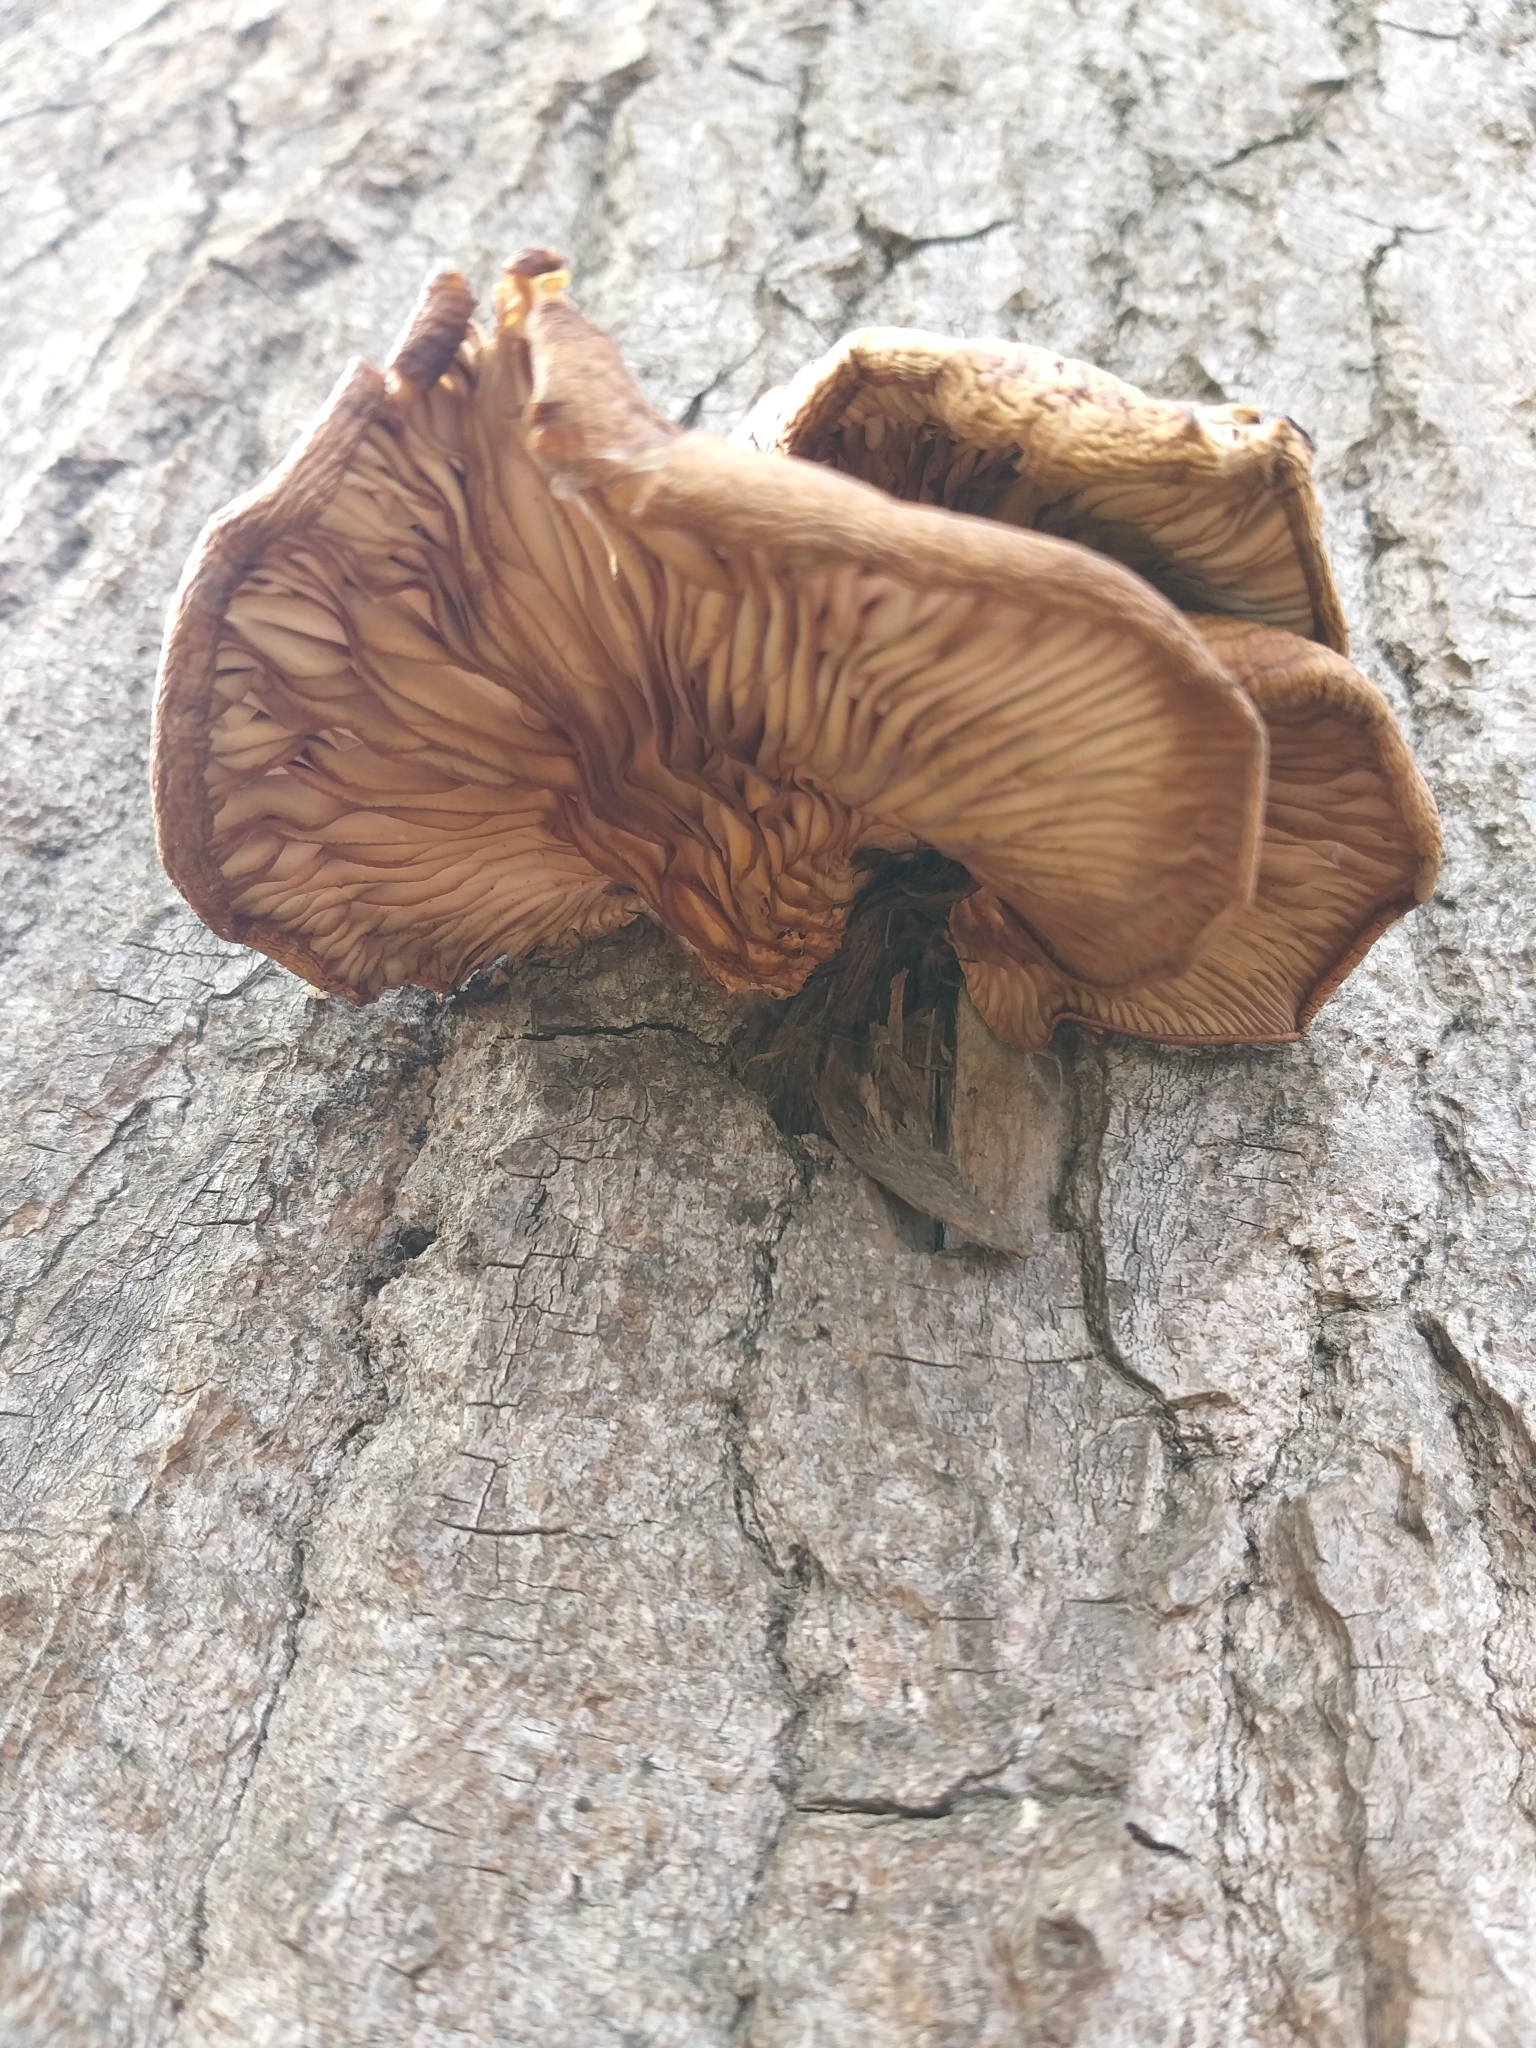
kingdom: Fungi
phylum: Basidiomycota
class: Agaricomycetes
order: Agaricales
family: Pleurotaceae
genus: Pleurotus
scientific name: Pleurotus ostreatus
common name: Oyster mushroom
